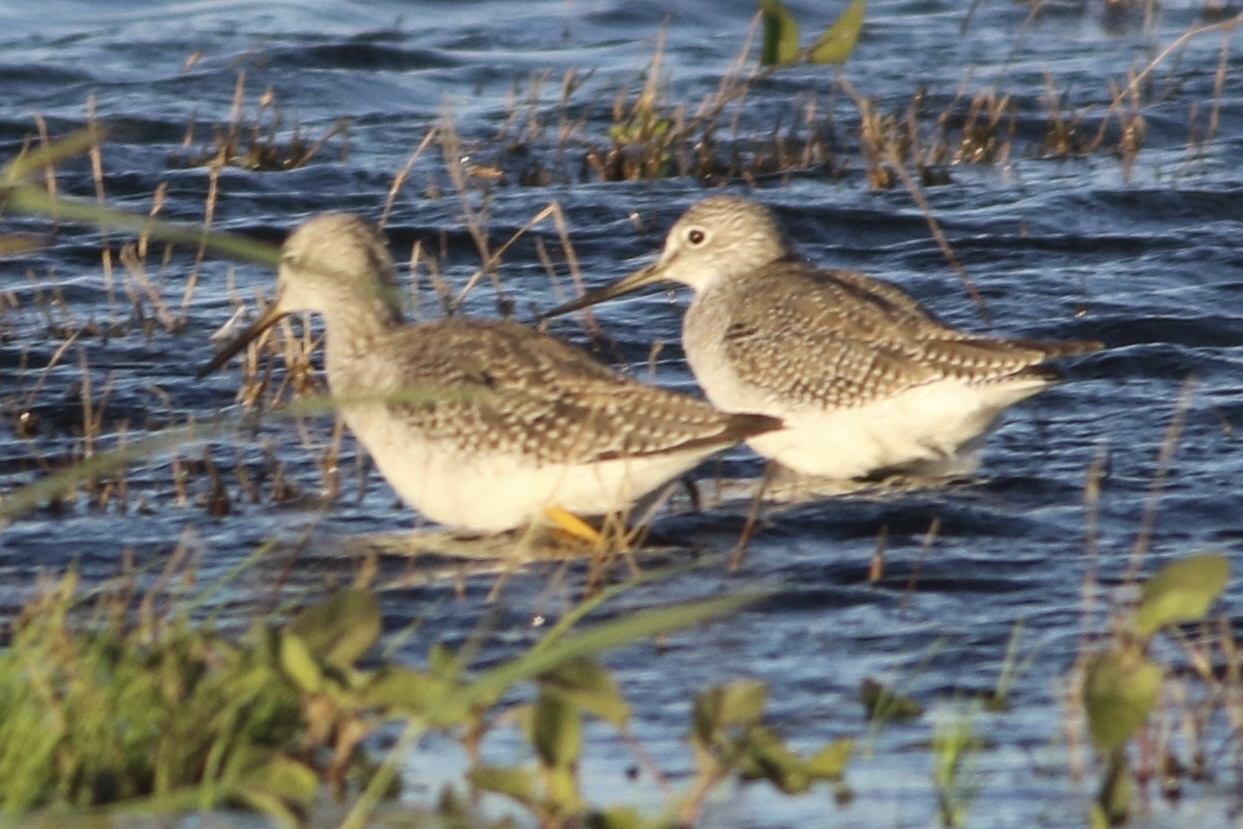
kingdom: Animalia
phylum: Chordata
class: Aves
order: Charadriiformes
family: Scolopacidae
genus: Tringa
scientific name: Tringa melanoleuca
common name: Greater yellowlegs
